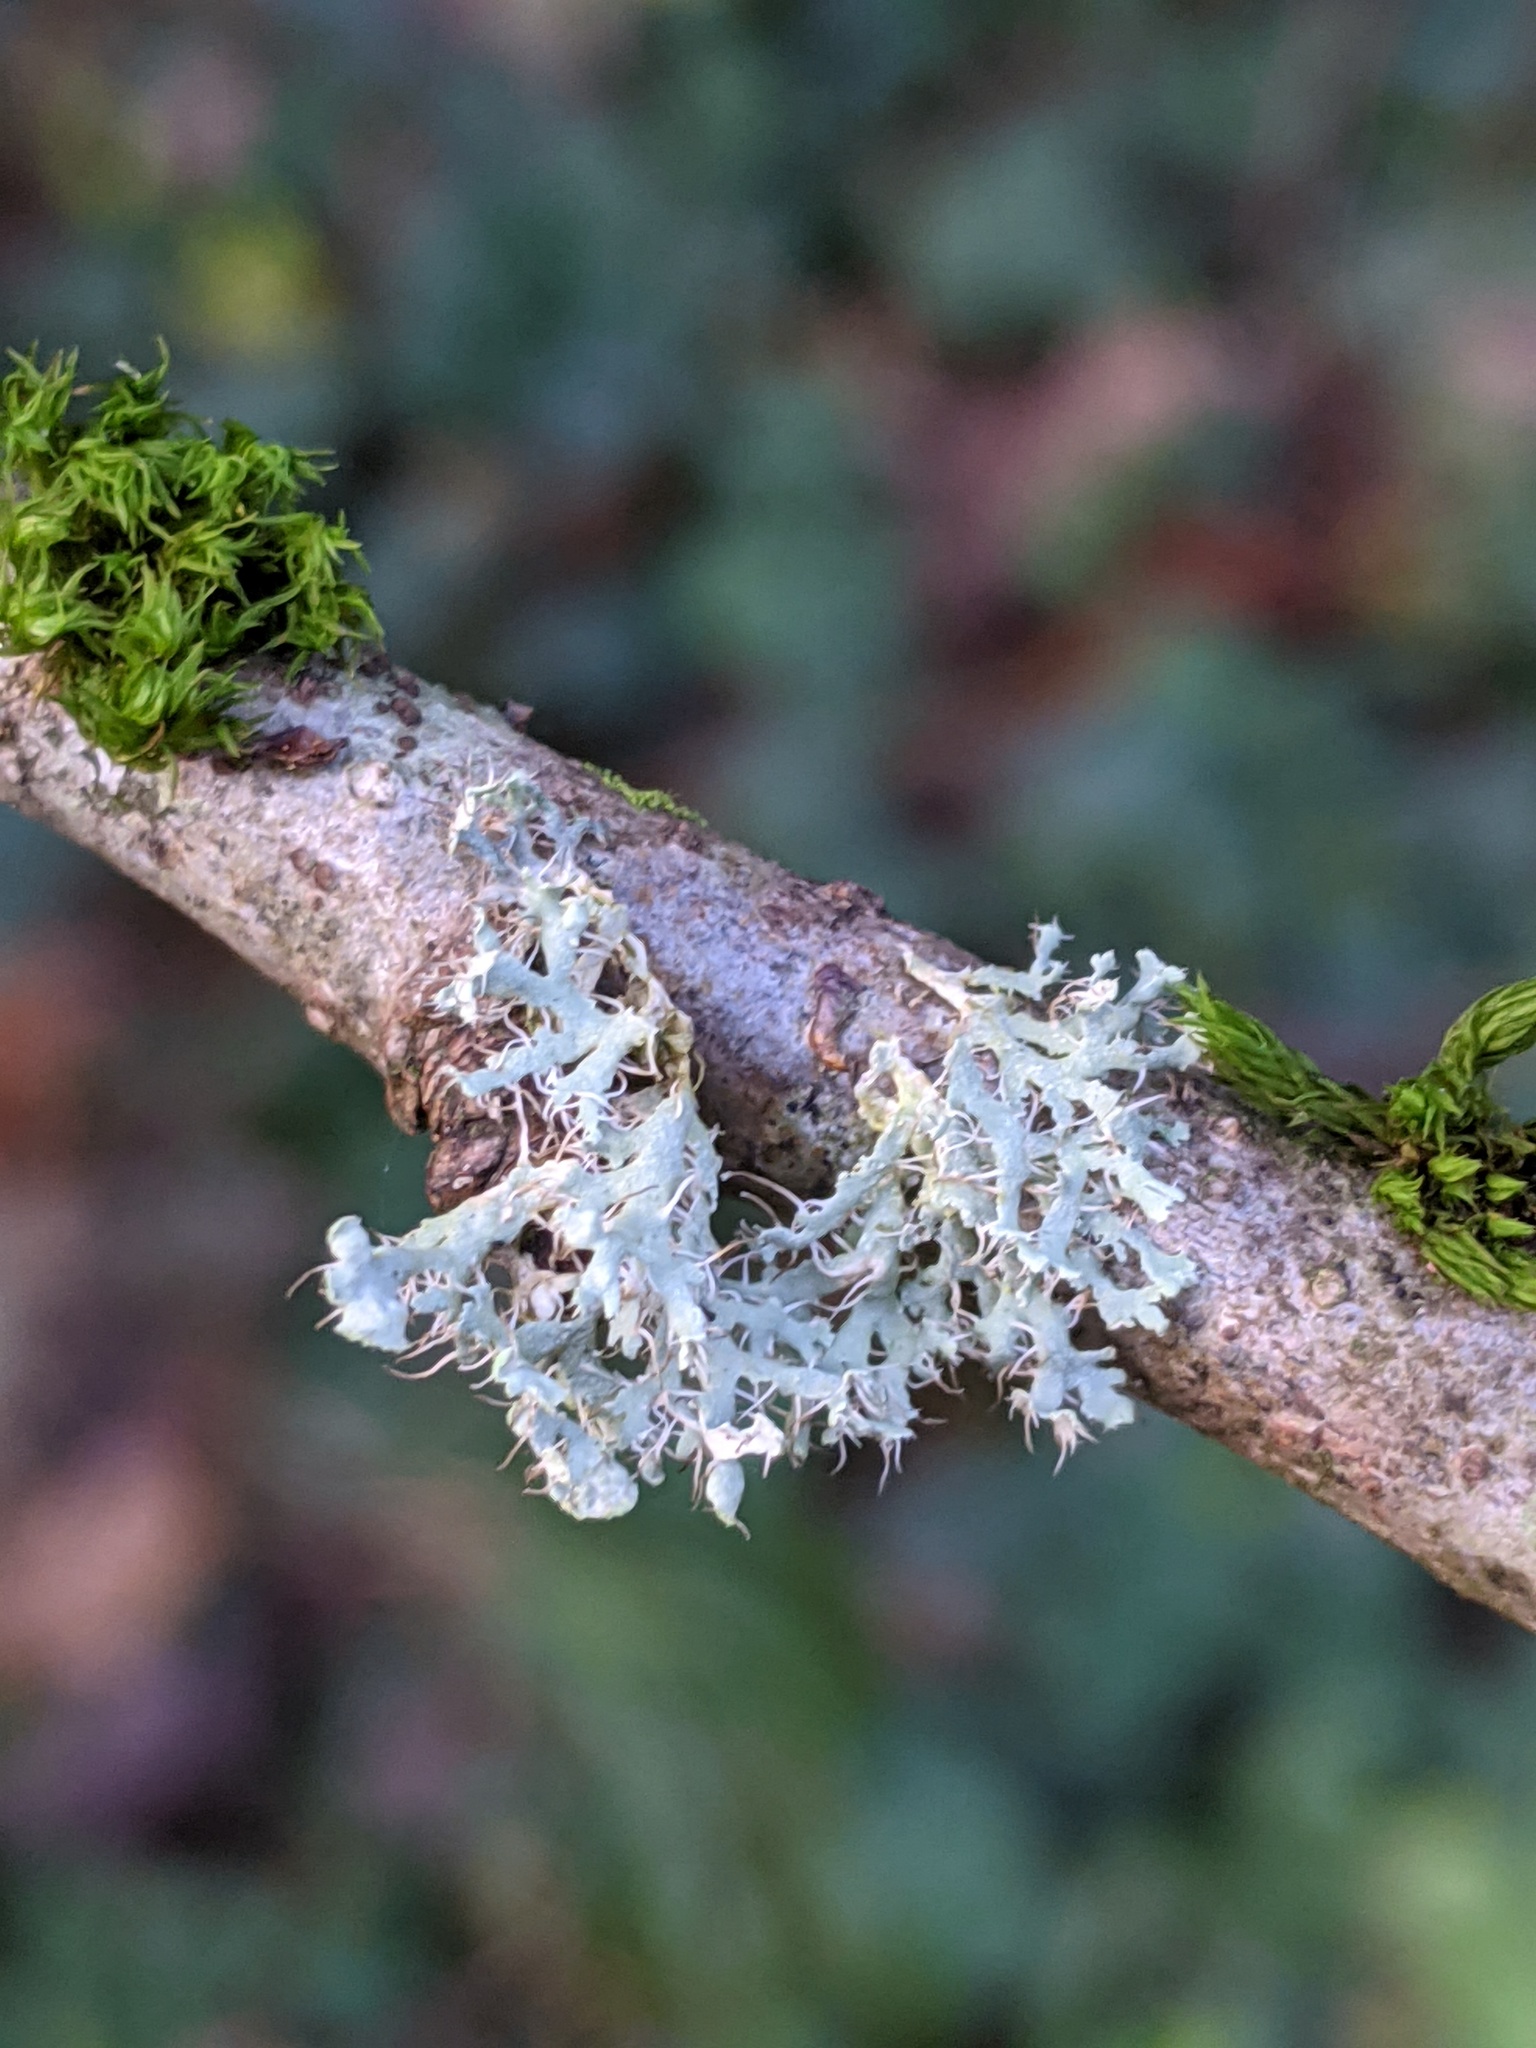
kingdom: Fungi
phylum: Ascomycota
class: Lecanoromycetes
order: Caliciales
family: Physciaceae
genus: Physcia
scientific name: Physcia adscendens
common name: Hooded rosette lichen
